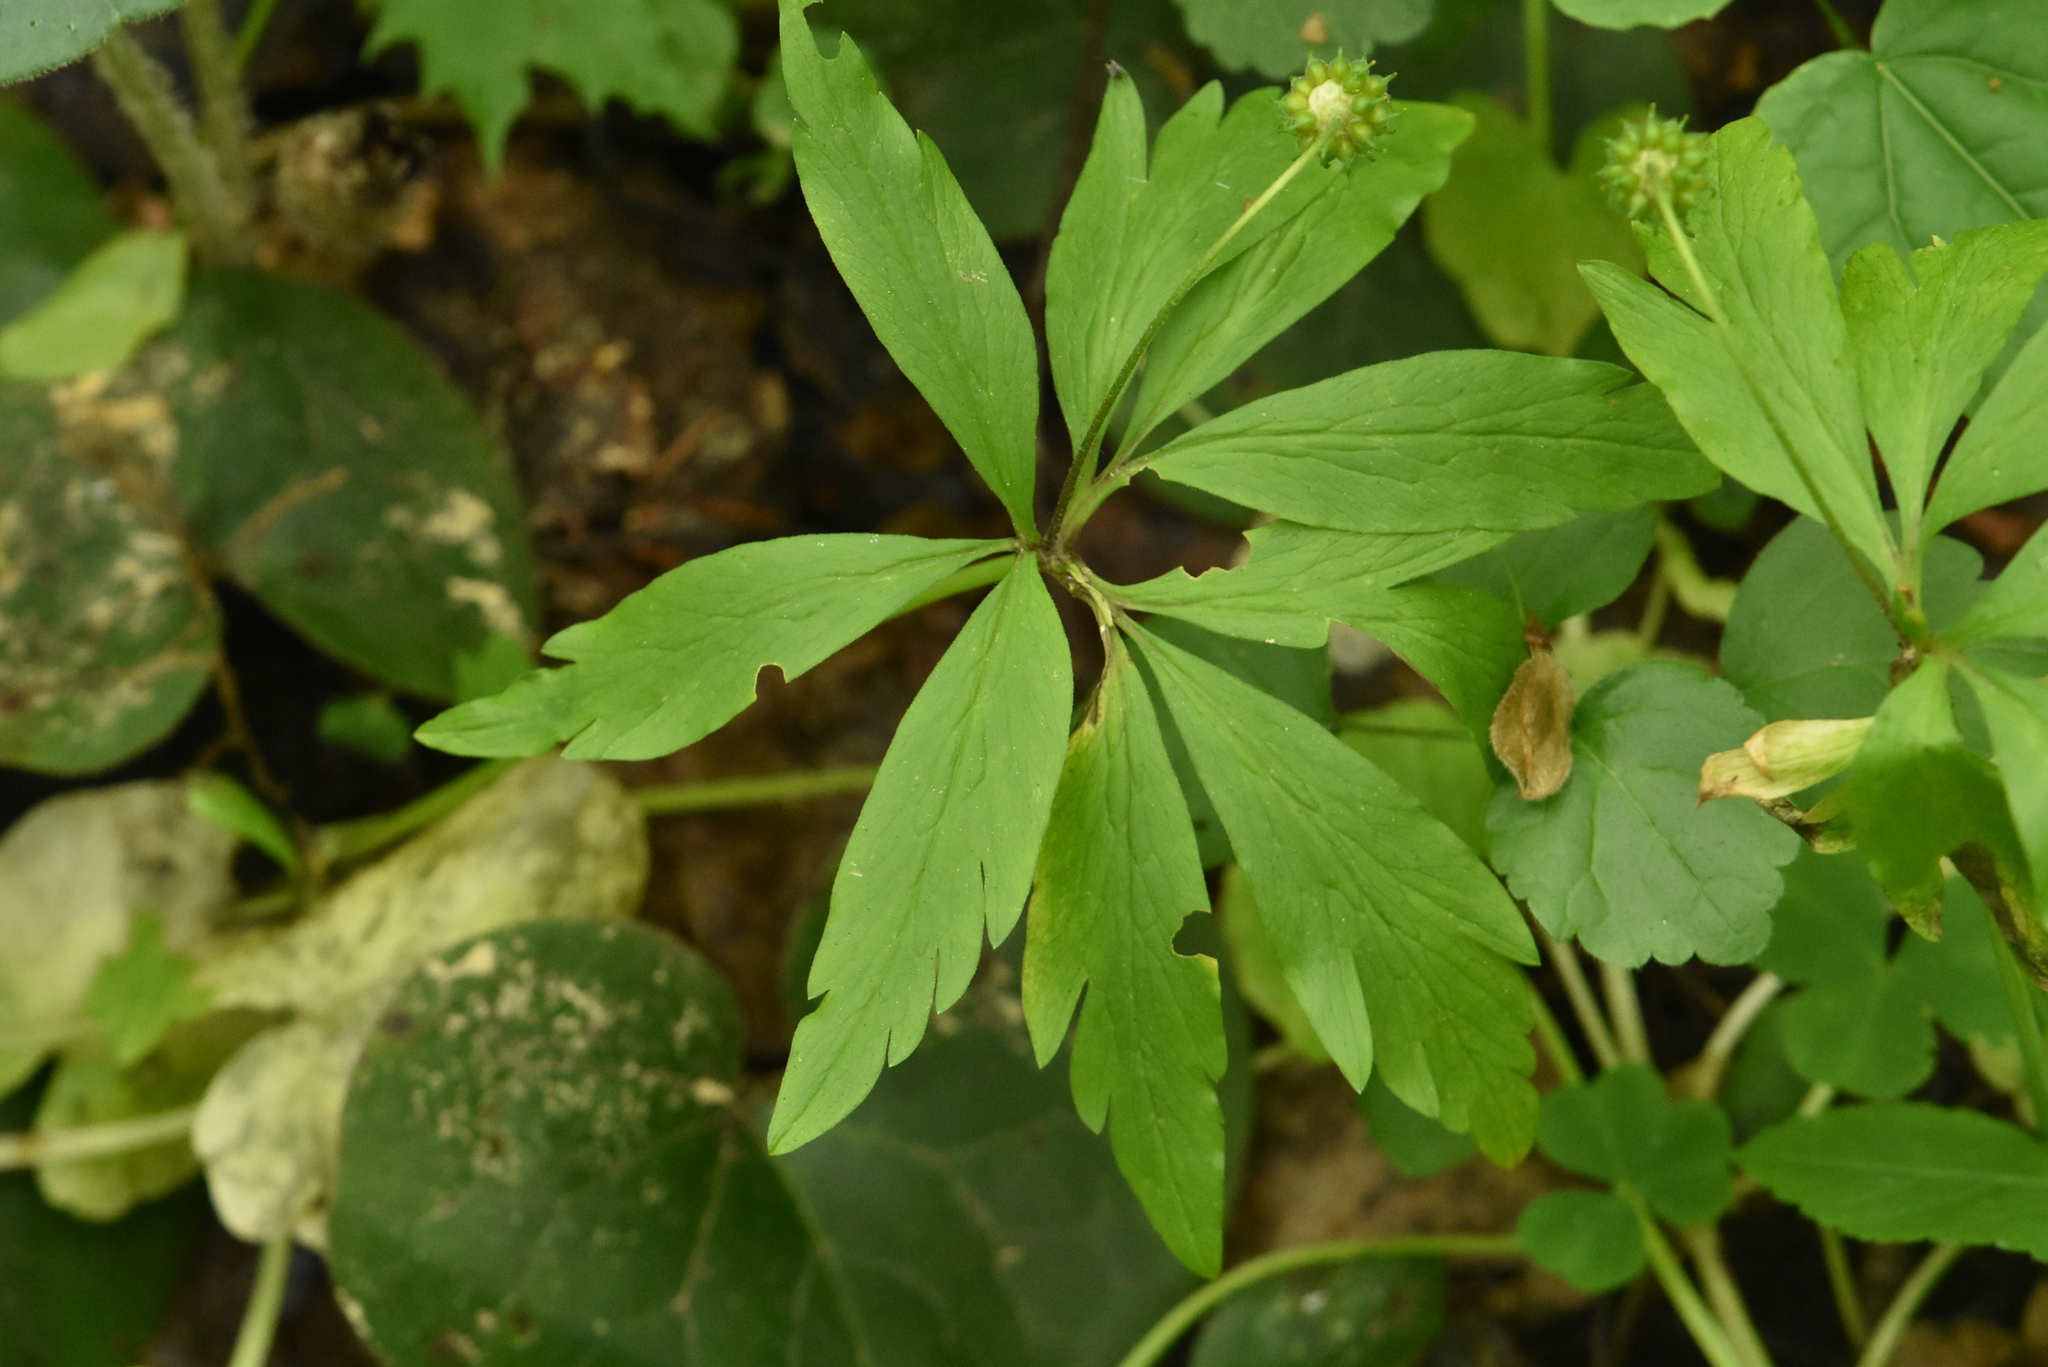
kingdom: Plantae
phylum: Tracheophyta
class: Magnoliopsida
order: Ranunculales
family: Ranunculaceae
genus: Anemone
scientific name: Anemone ranunculoides
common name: Yellow anemone
